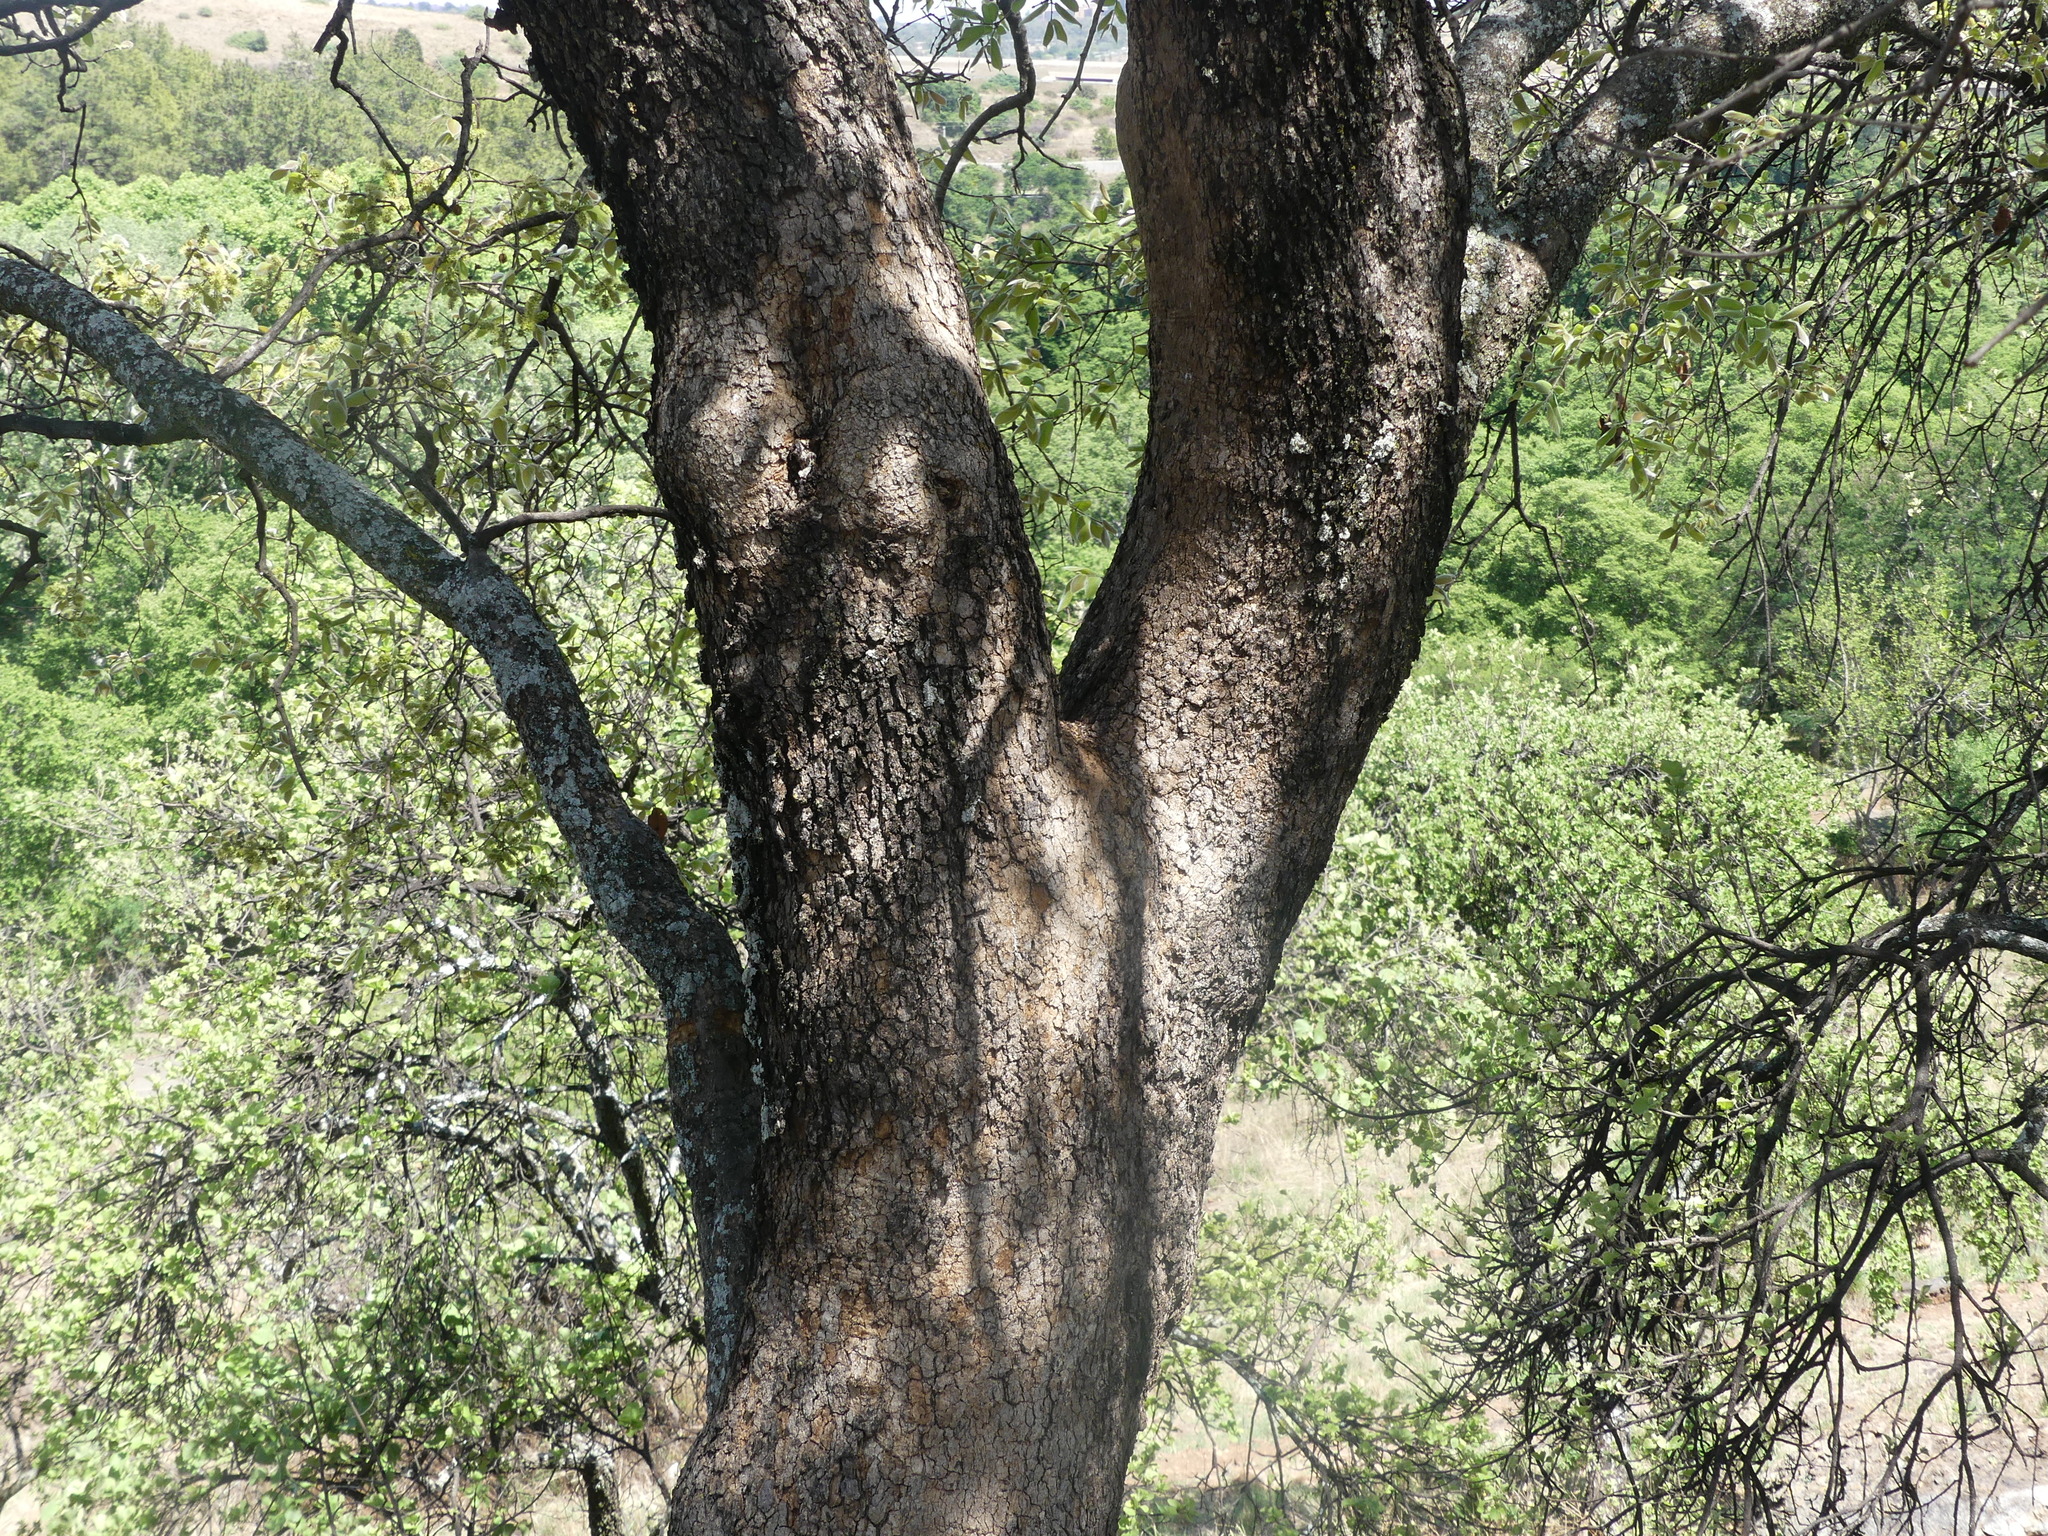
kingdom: Plantae
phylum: Tracheophyta
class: Magnoliopsida
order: Myrtales
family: Combretaceae
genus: Combretum
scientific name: Combretum molle
